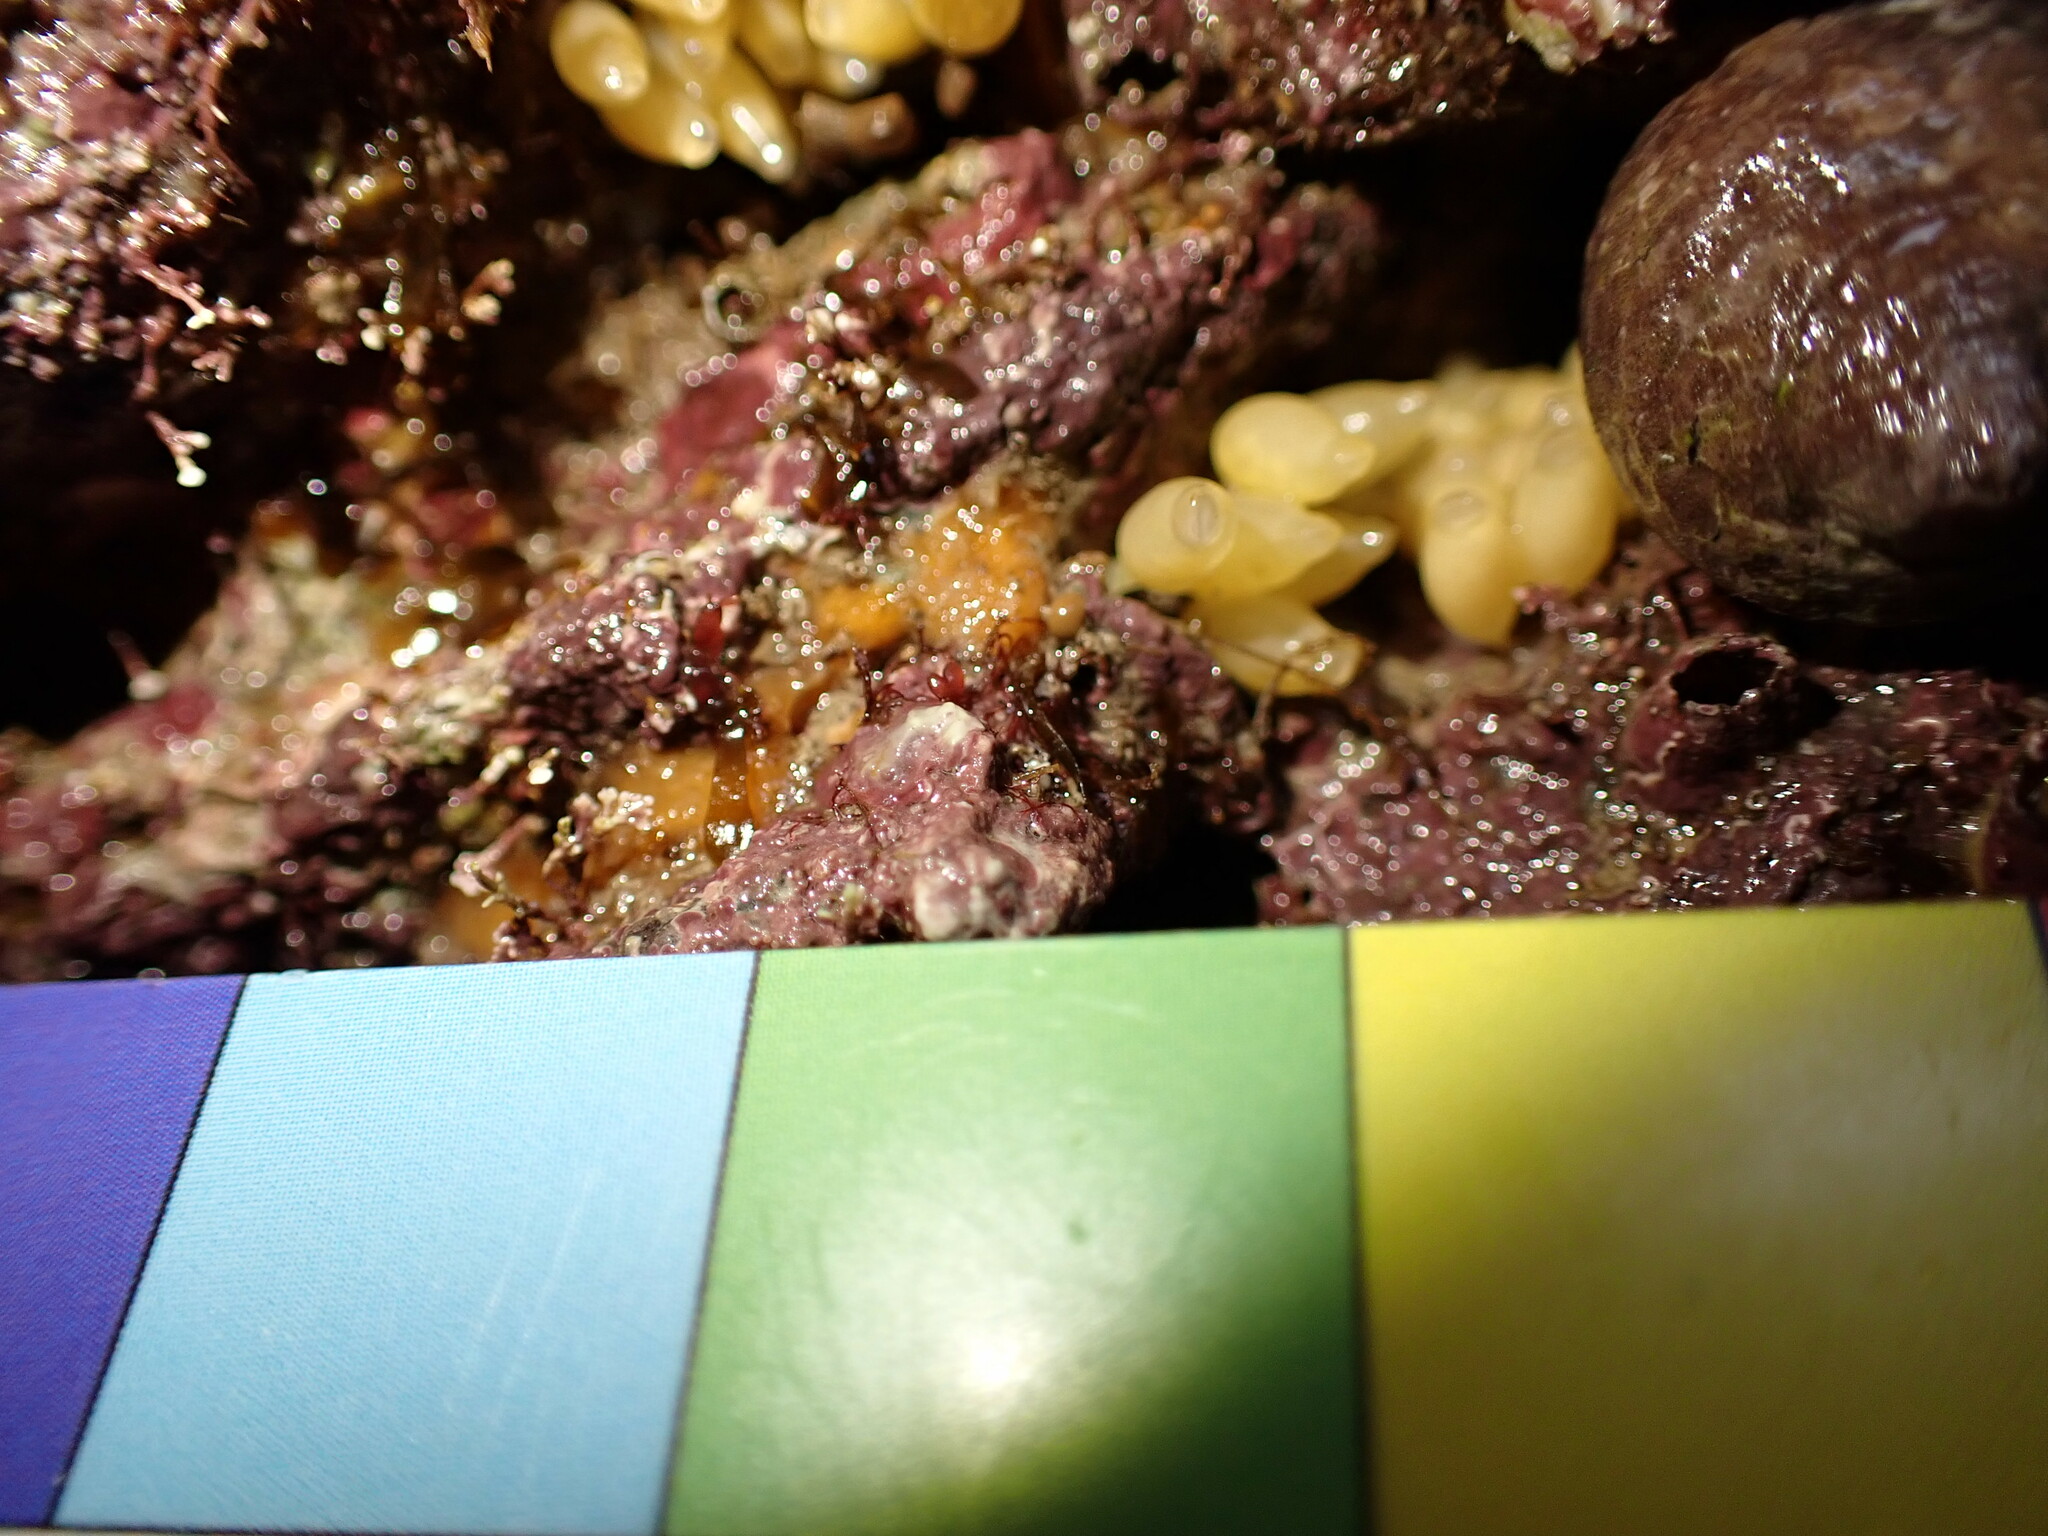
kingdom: Animalia
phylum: Mollusca
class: Gastropoda
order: Neogastropoda
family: Muricidae
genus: Nucella
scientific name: Nucella lapillus
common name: Dog whelk
